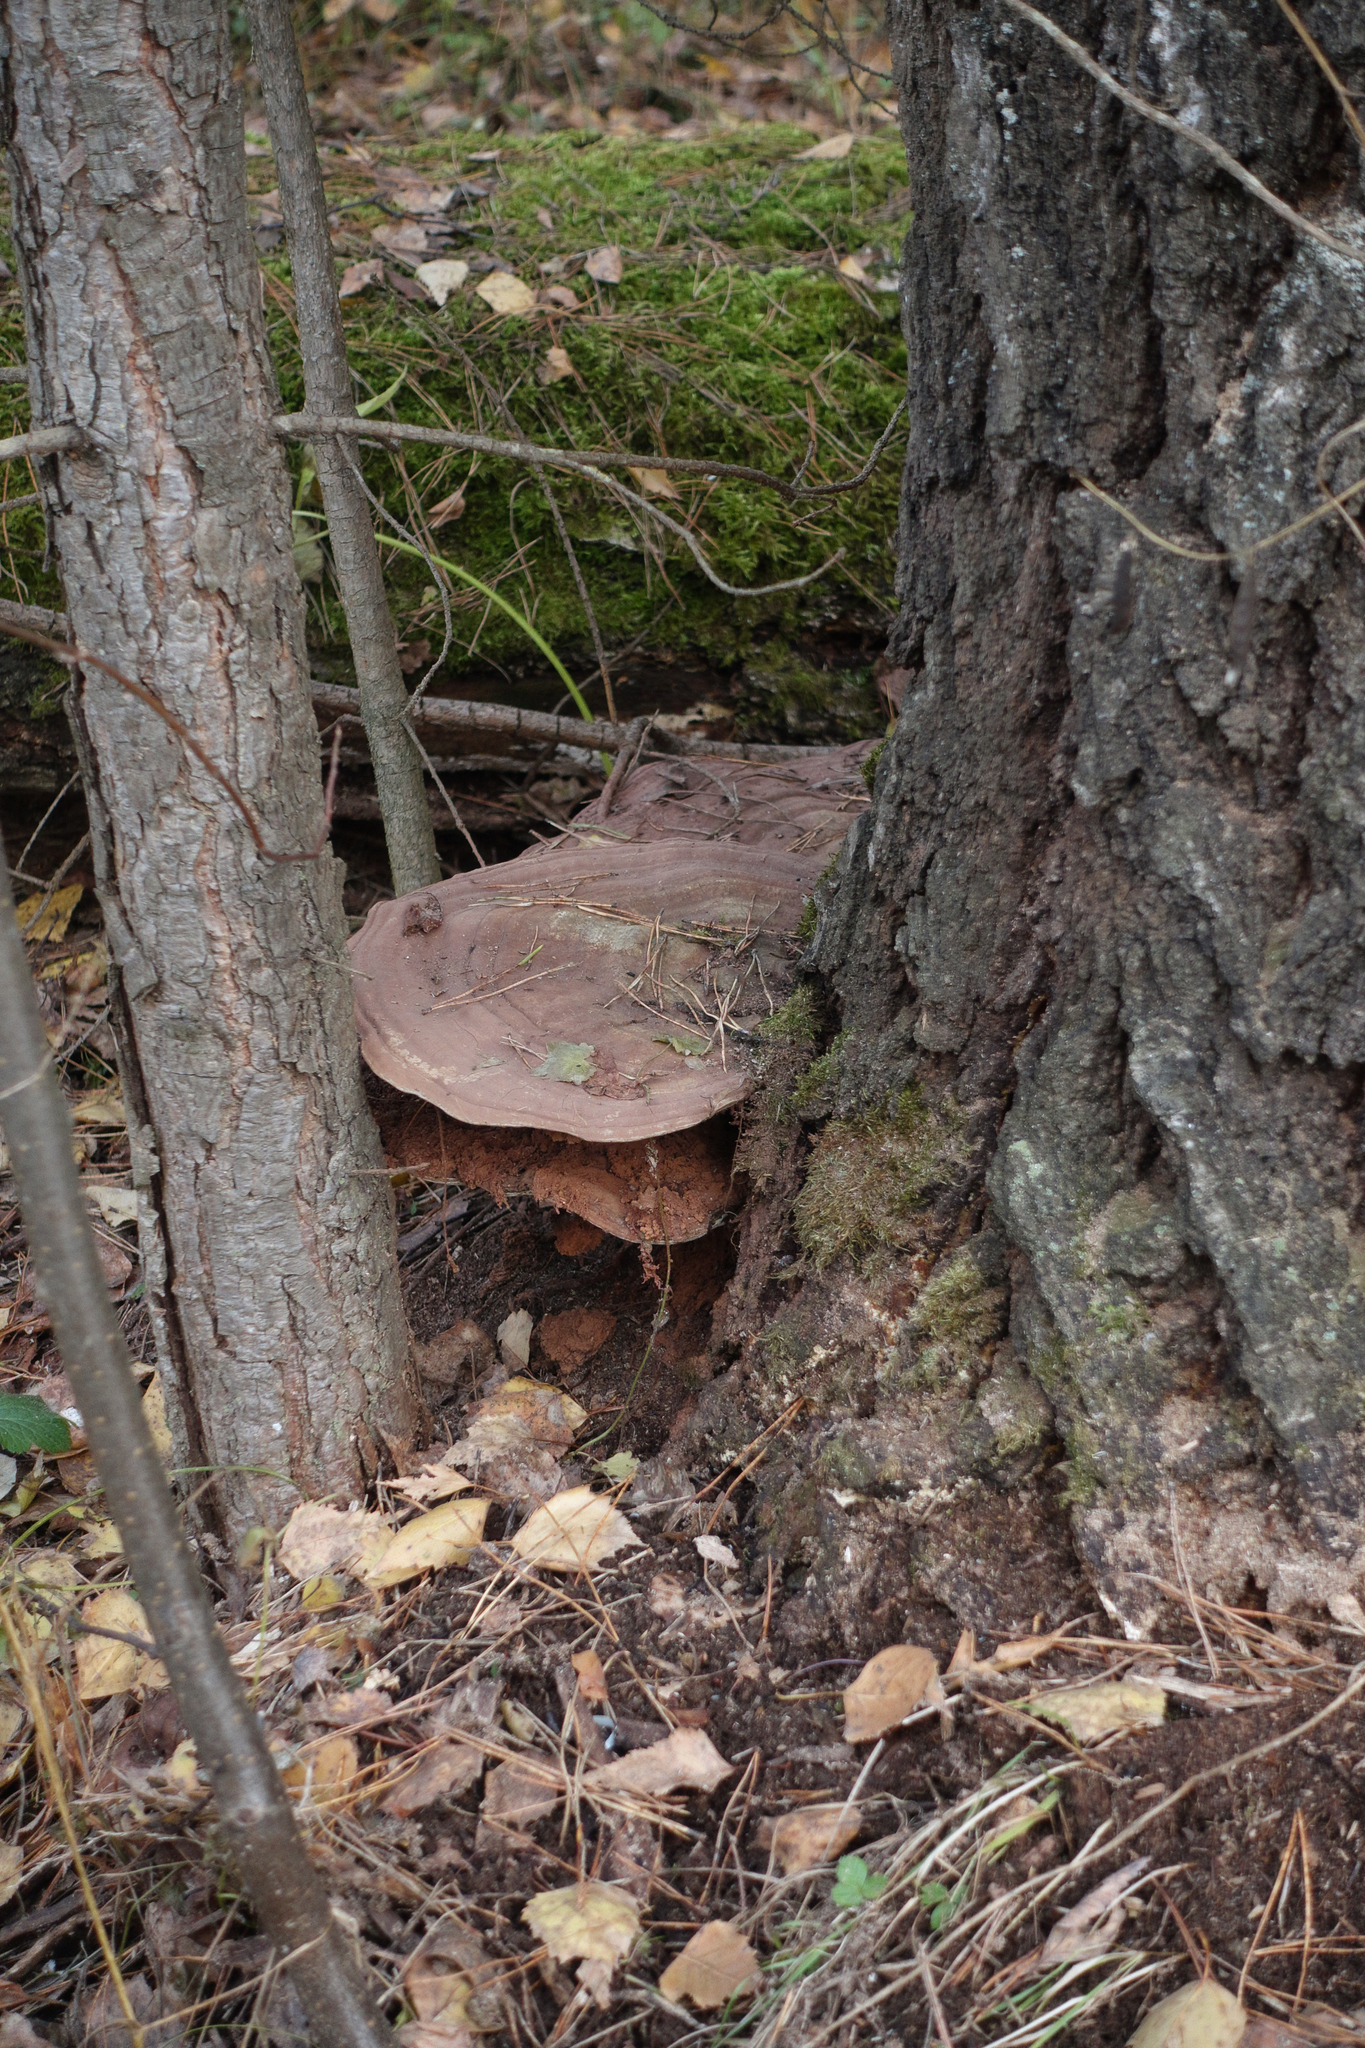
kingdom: Fungi
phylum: Basidiomycota
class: Agaricomycetes
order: Polyporales
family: Polyporaceae
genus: Ganoderma
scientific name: Ganoderma applanatum
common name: Artist's bracket
